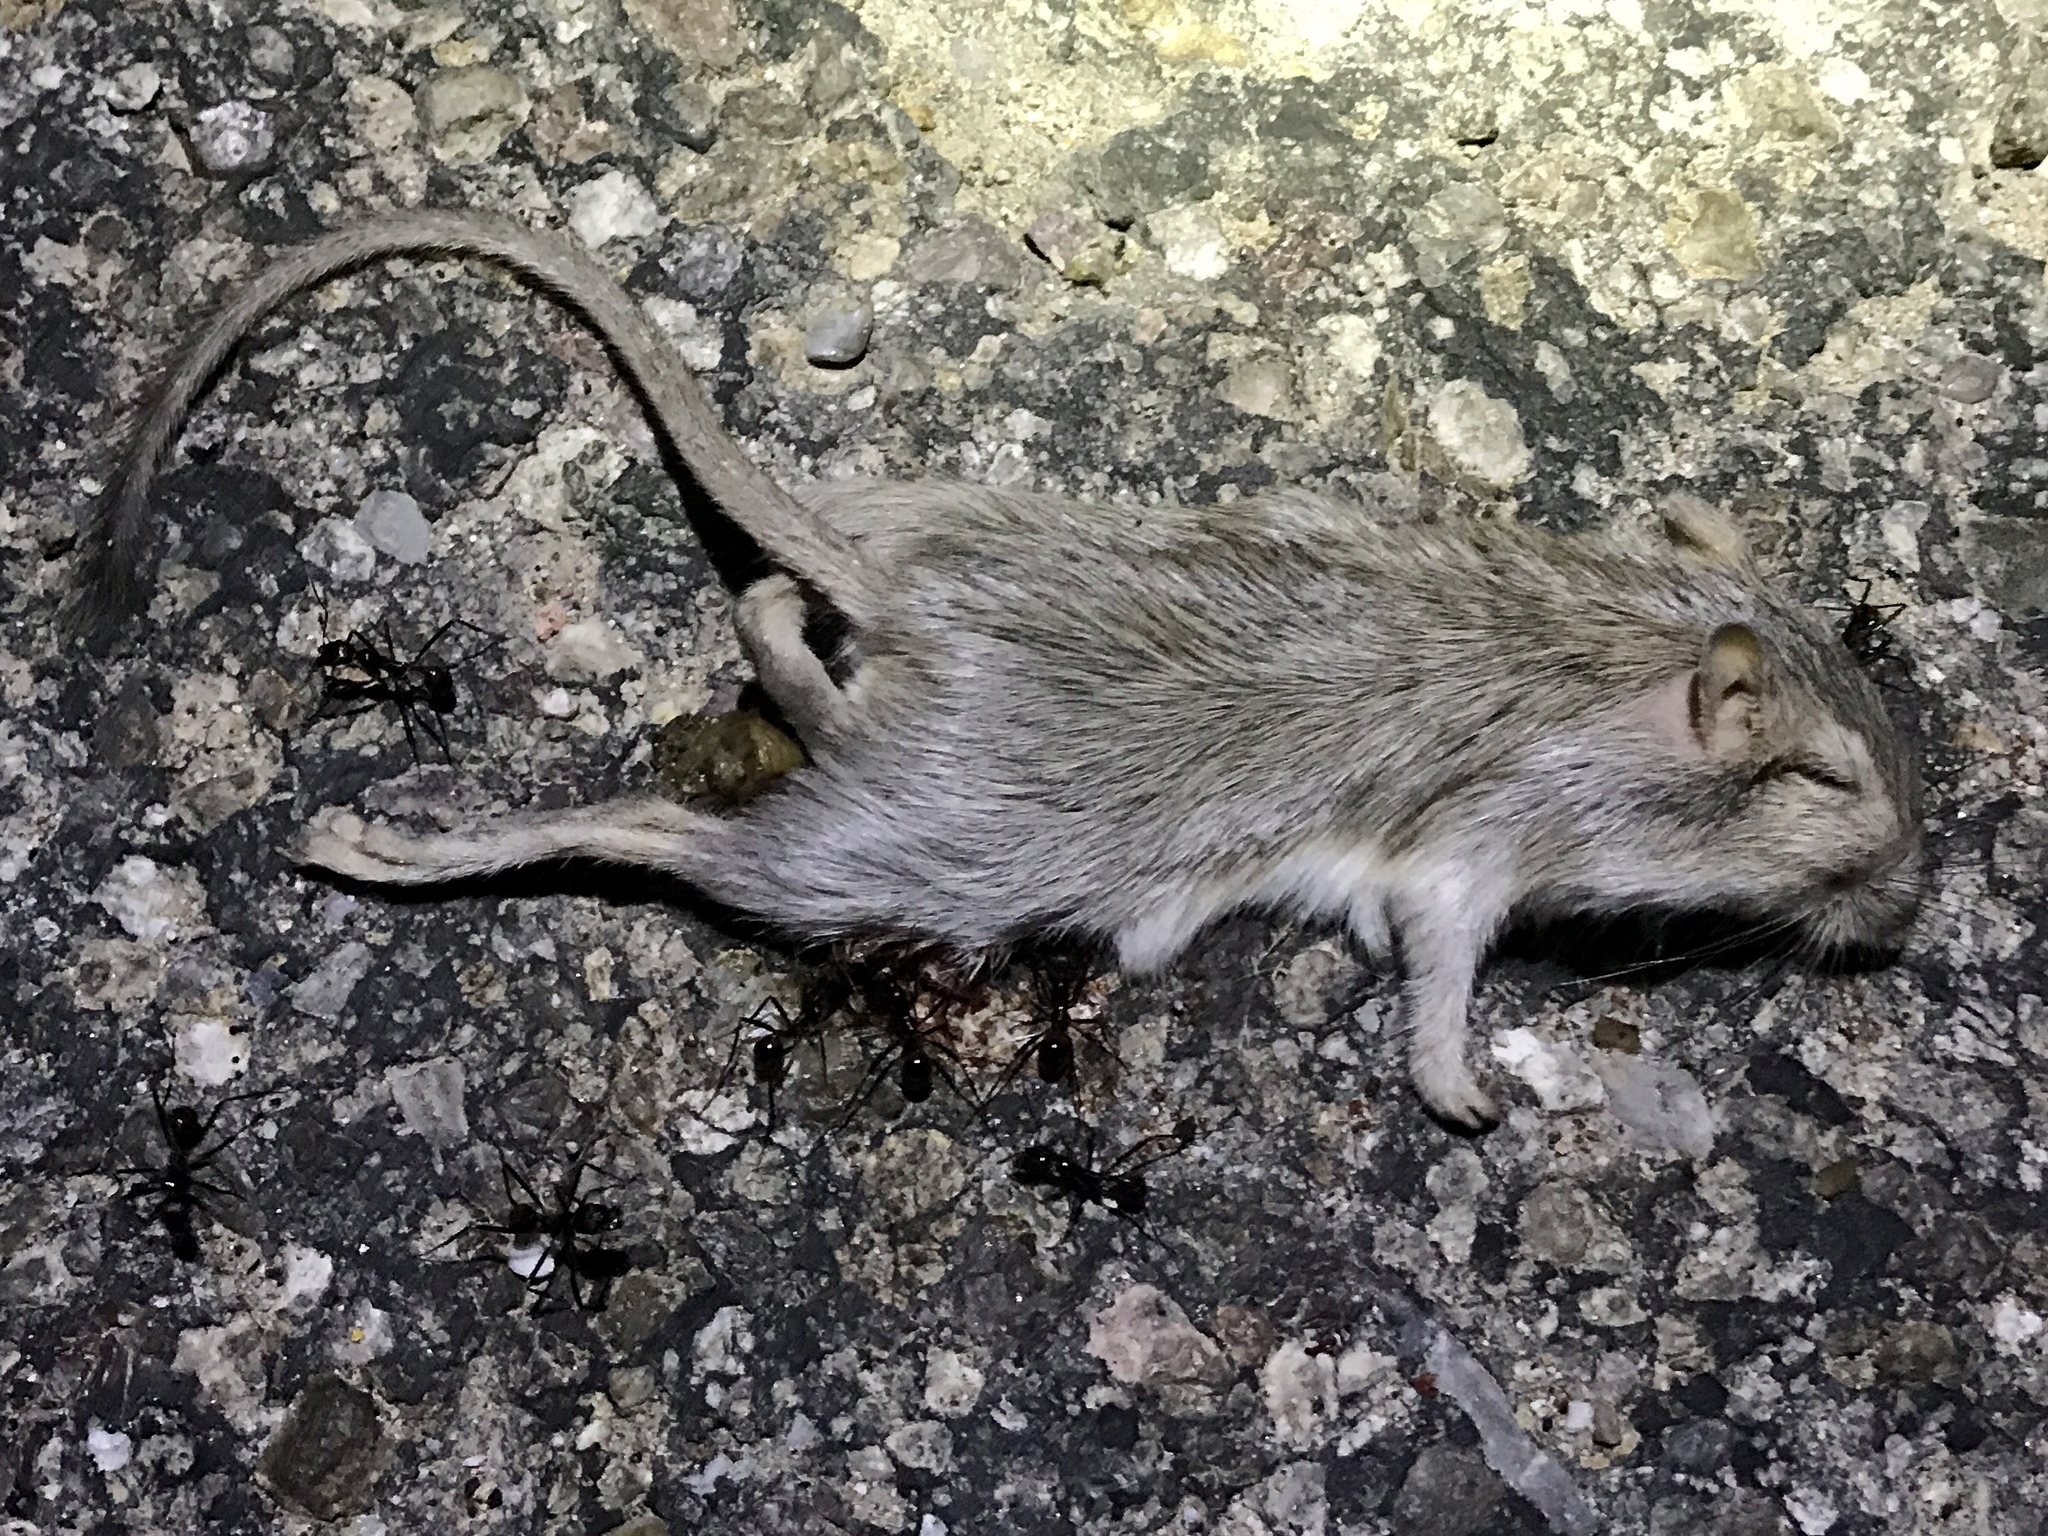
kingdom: Animalia
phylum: Chordata
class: Mammalia
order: Rodentia
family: Heteromyidae
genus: Chaetodipus
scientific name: Chaetodipus baileyi
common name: Bailey's pocket mouse
